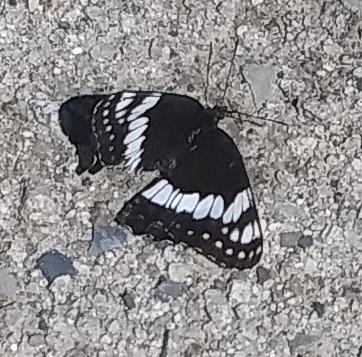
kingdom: Animalia
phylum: Arthropoda
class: Insecta
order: Lepidoptera
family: Nymphalidae
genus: Limenitis
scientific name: Limenitis weidemeyerii
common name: Weidemeyer's admiral
